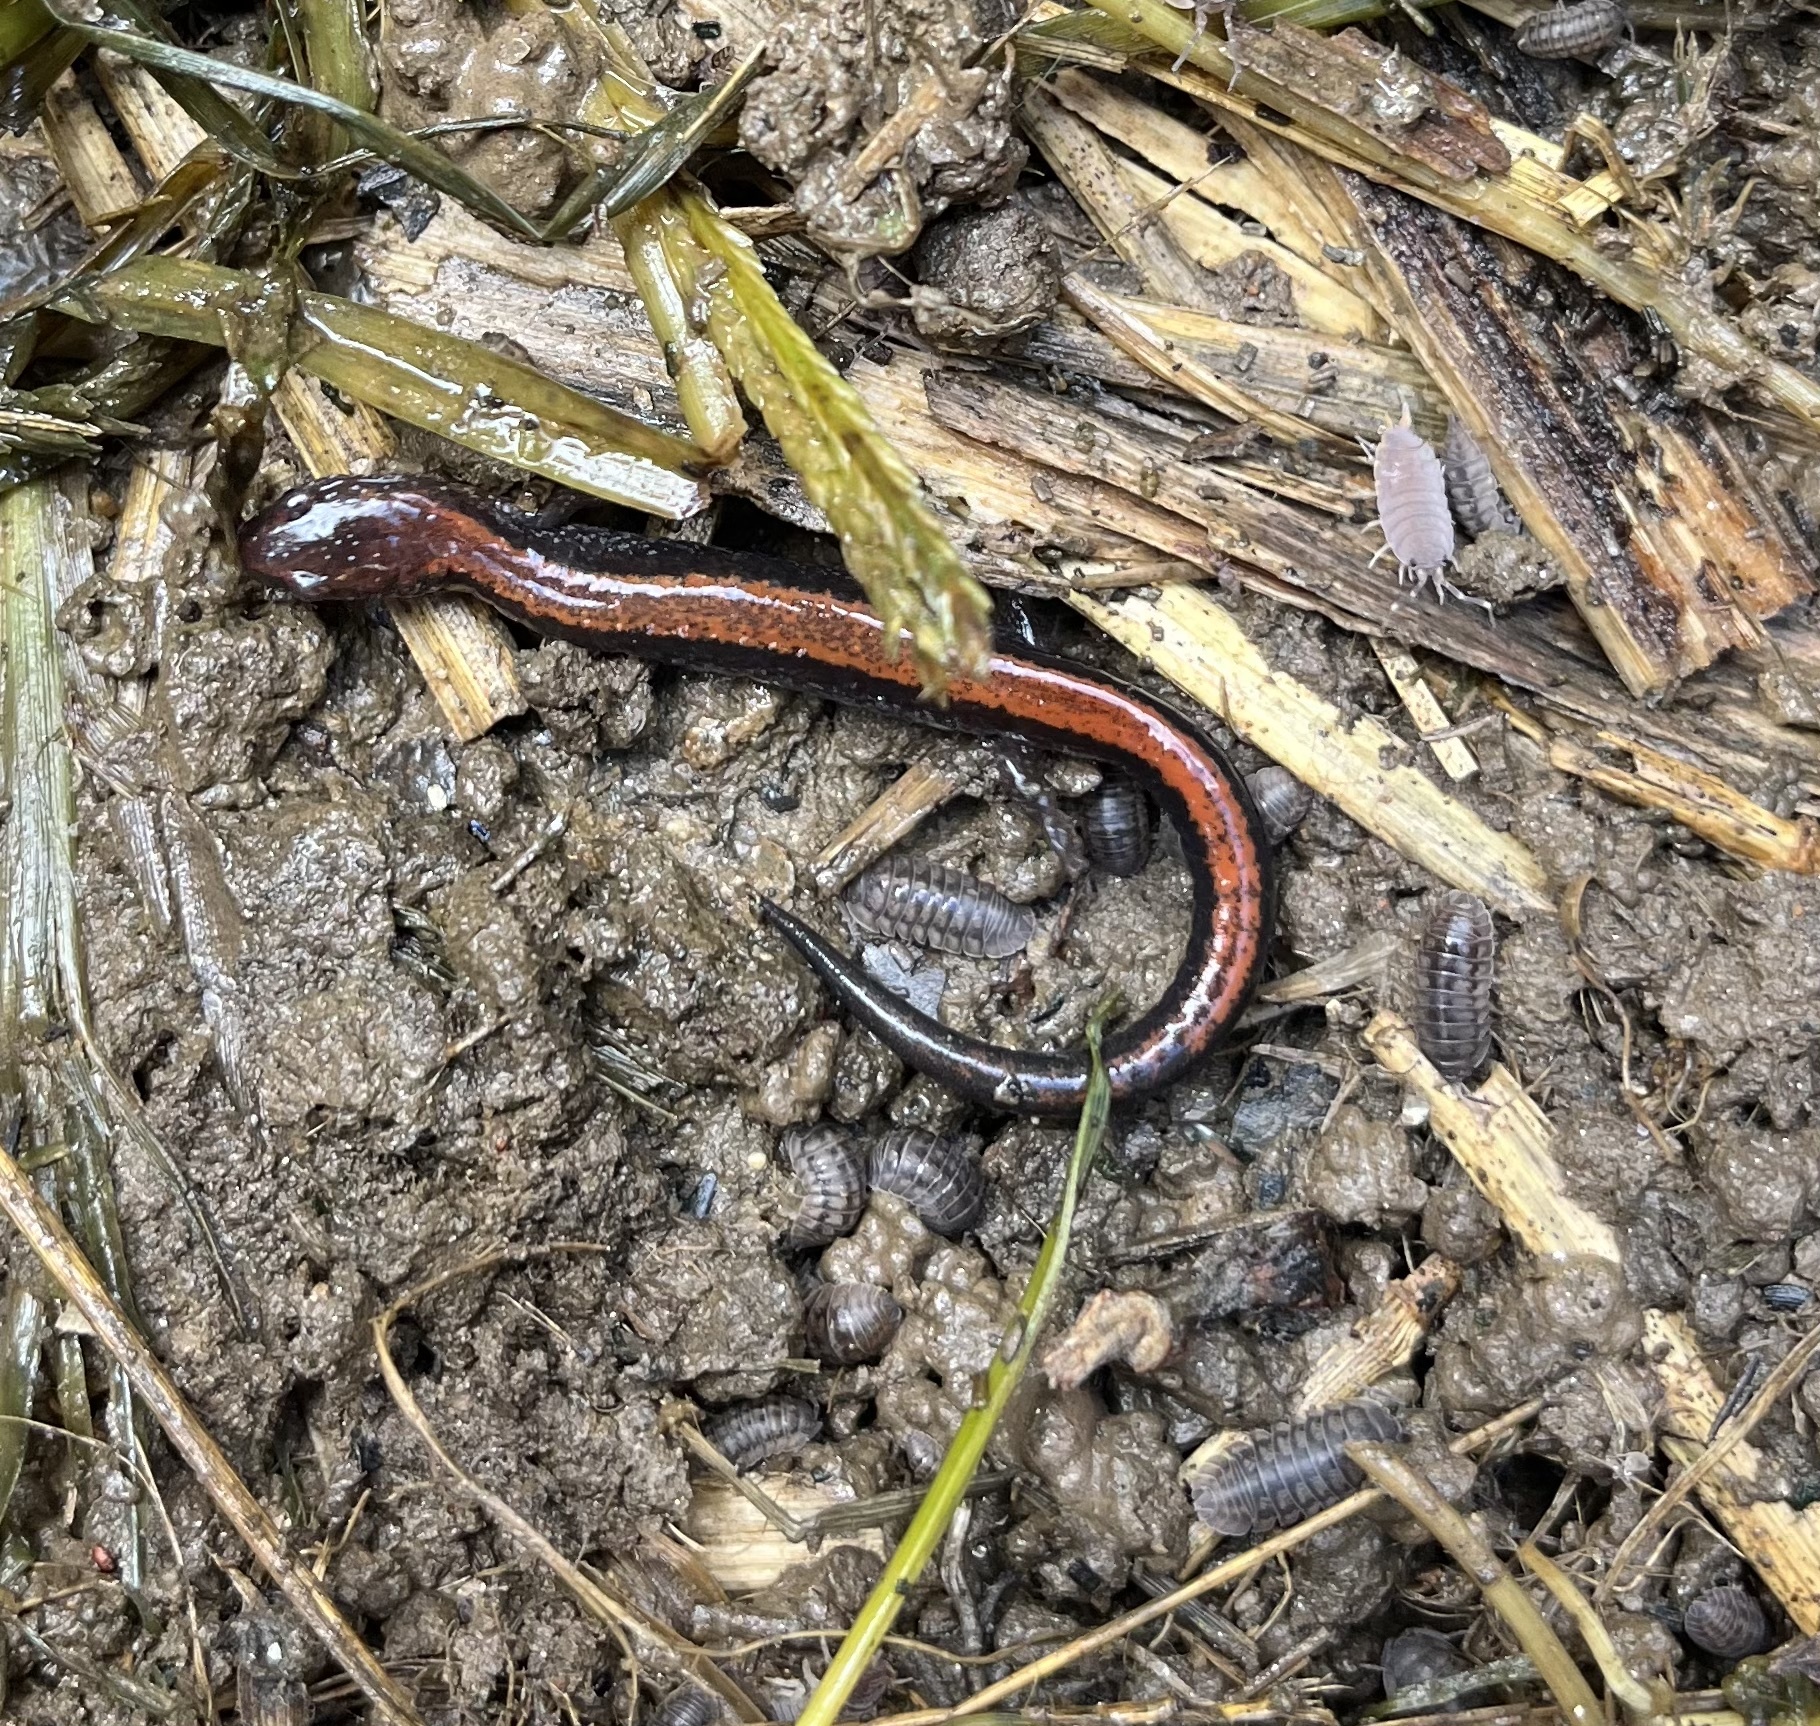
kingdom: Animalia
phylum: Chordata
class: Amphibia
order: Caudata
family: Plethodontidae
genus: Plethodon
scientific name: Plethodon cinereus
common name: Redback salamander
